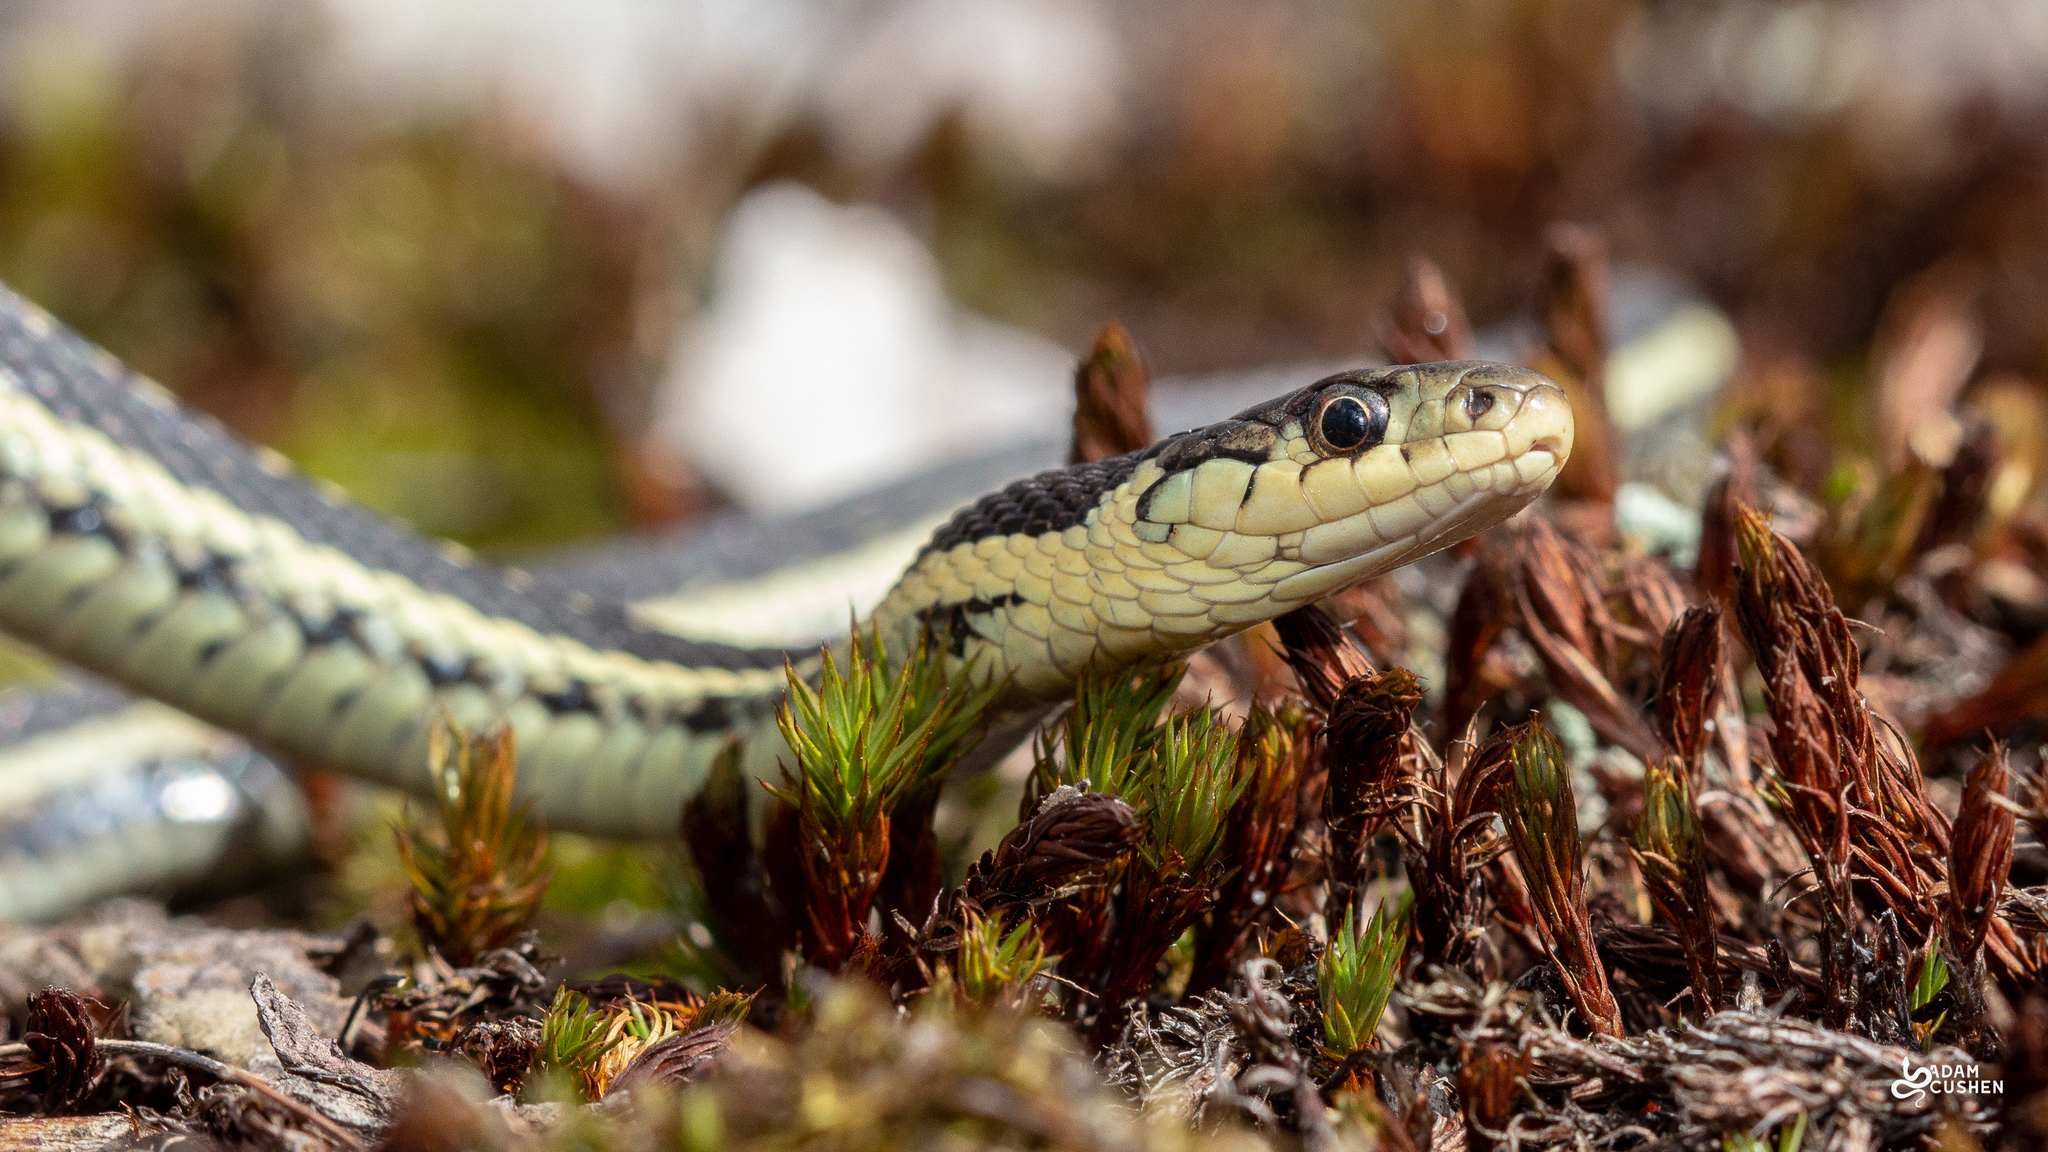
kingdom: Animalia
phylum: Chordata
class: Squamata
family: Colubridae
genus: Thamnophis
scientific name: Thamnophis sirtalis
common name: Common garter snake
